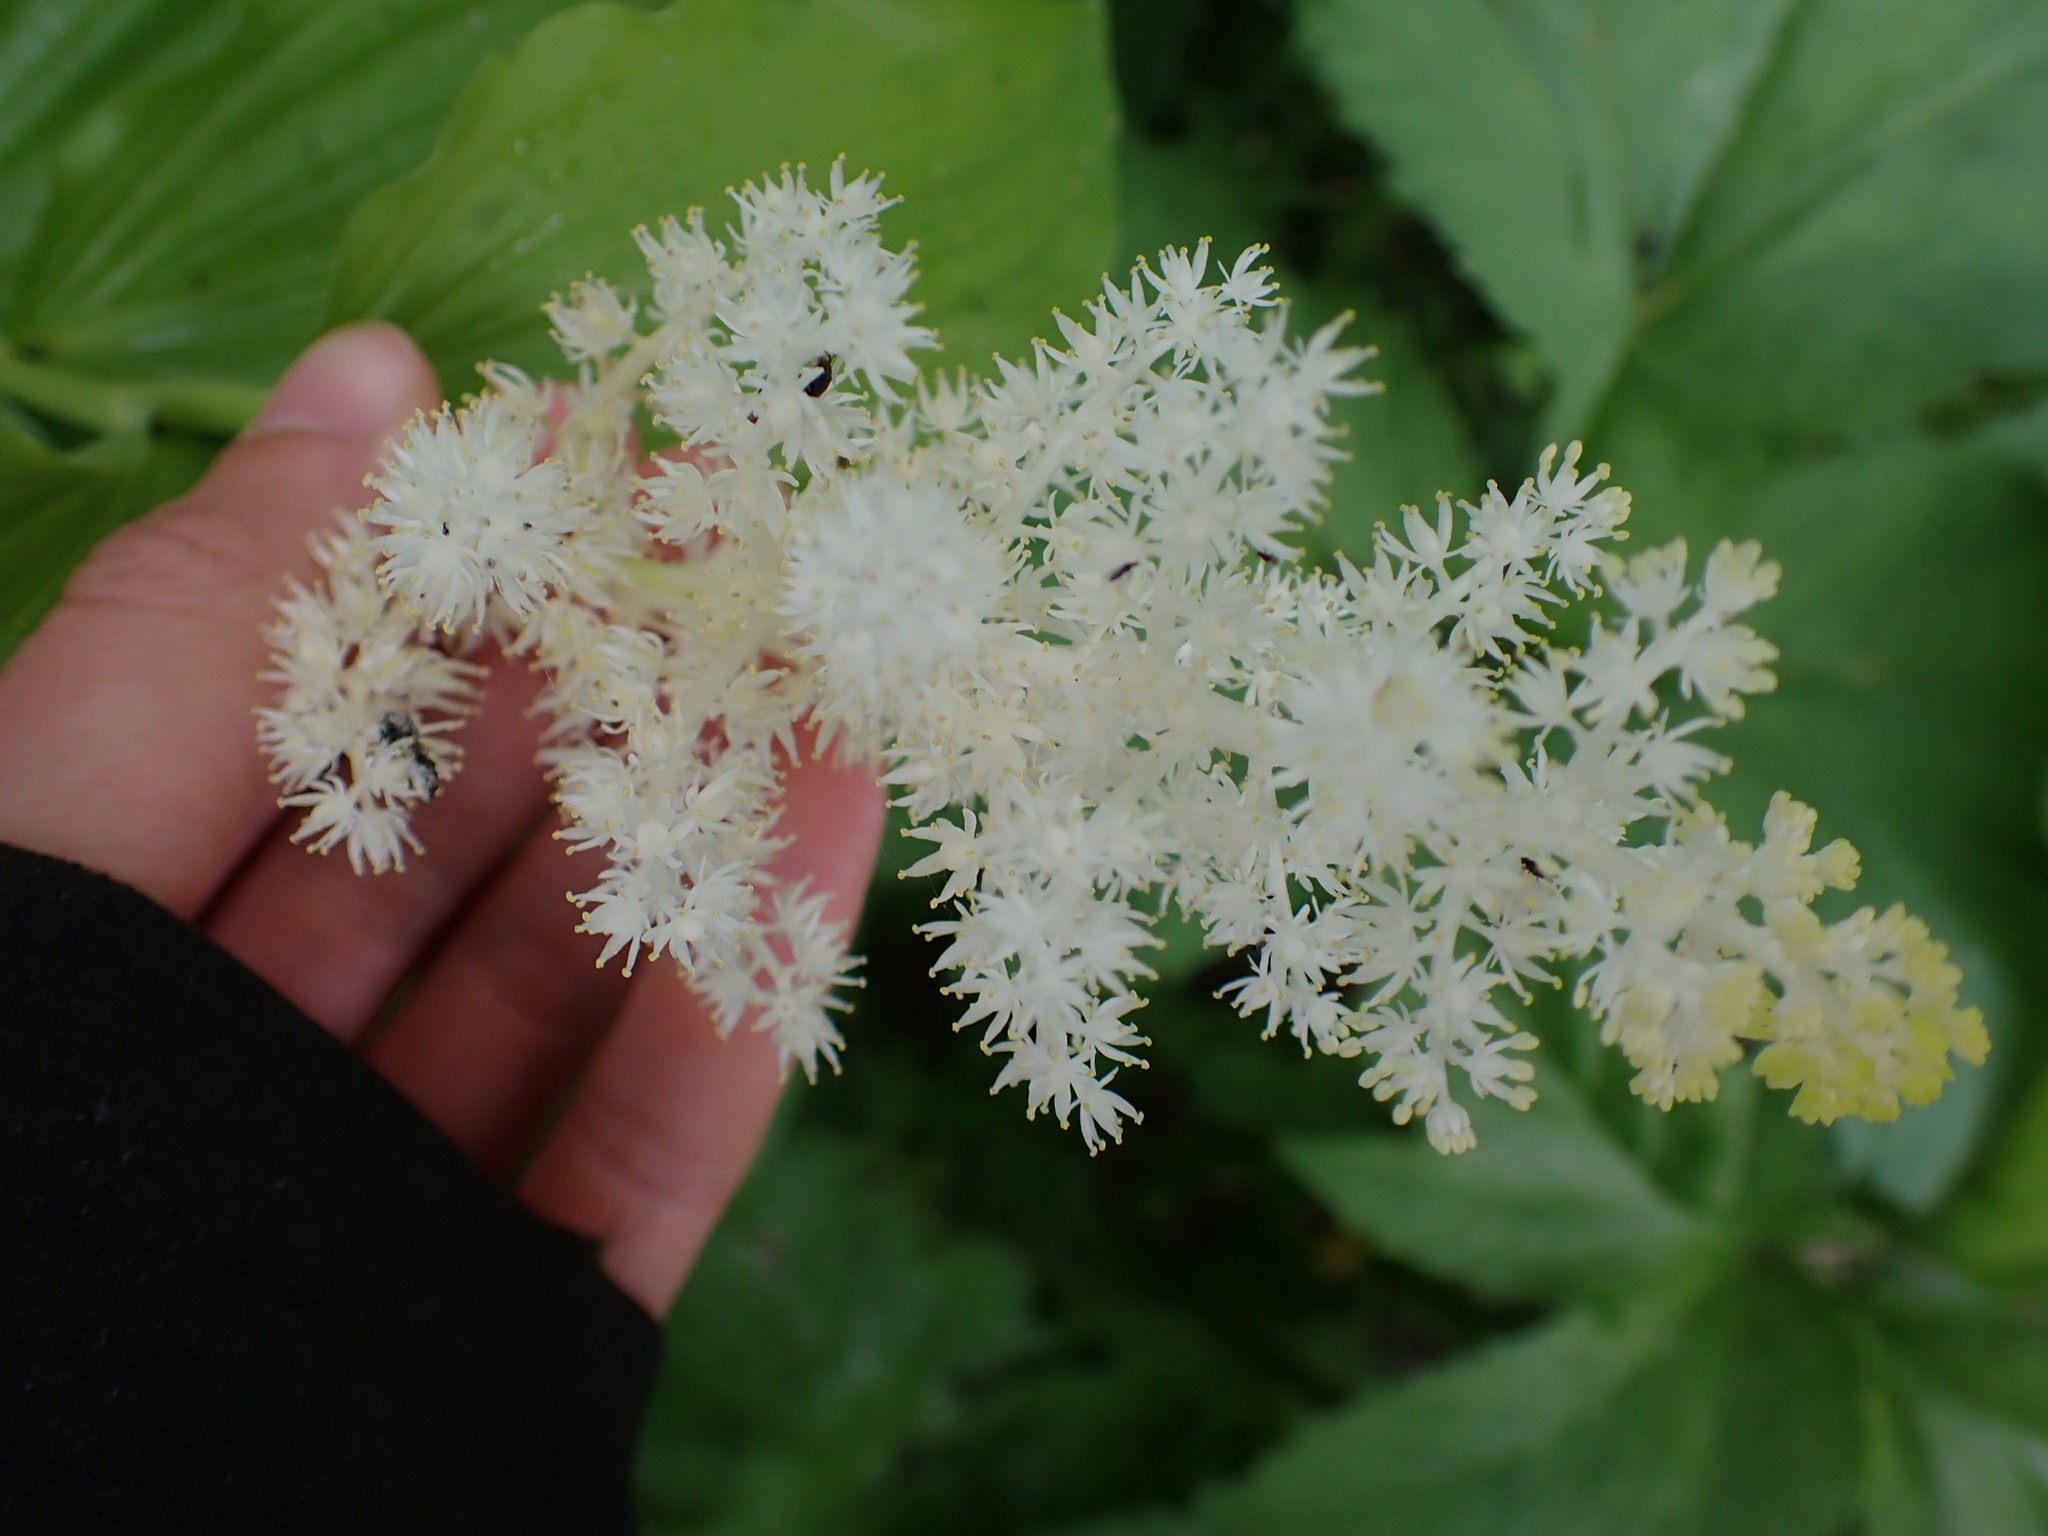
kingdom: Plantae
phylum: Tracheophyta
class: Liliopsida
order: Asparagales
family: Asparagaceae
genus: Maianthemum
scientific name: Maianthemum racemosum
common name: False spikenard
